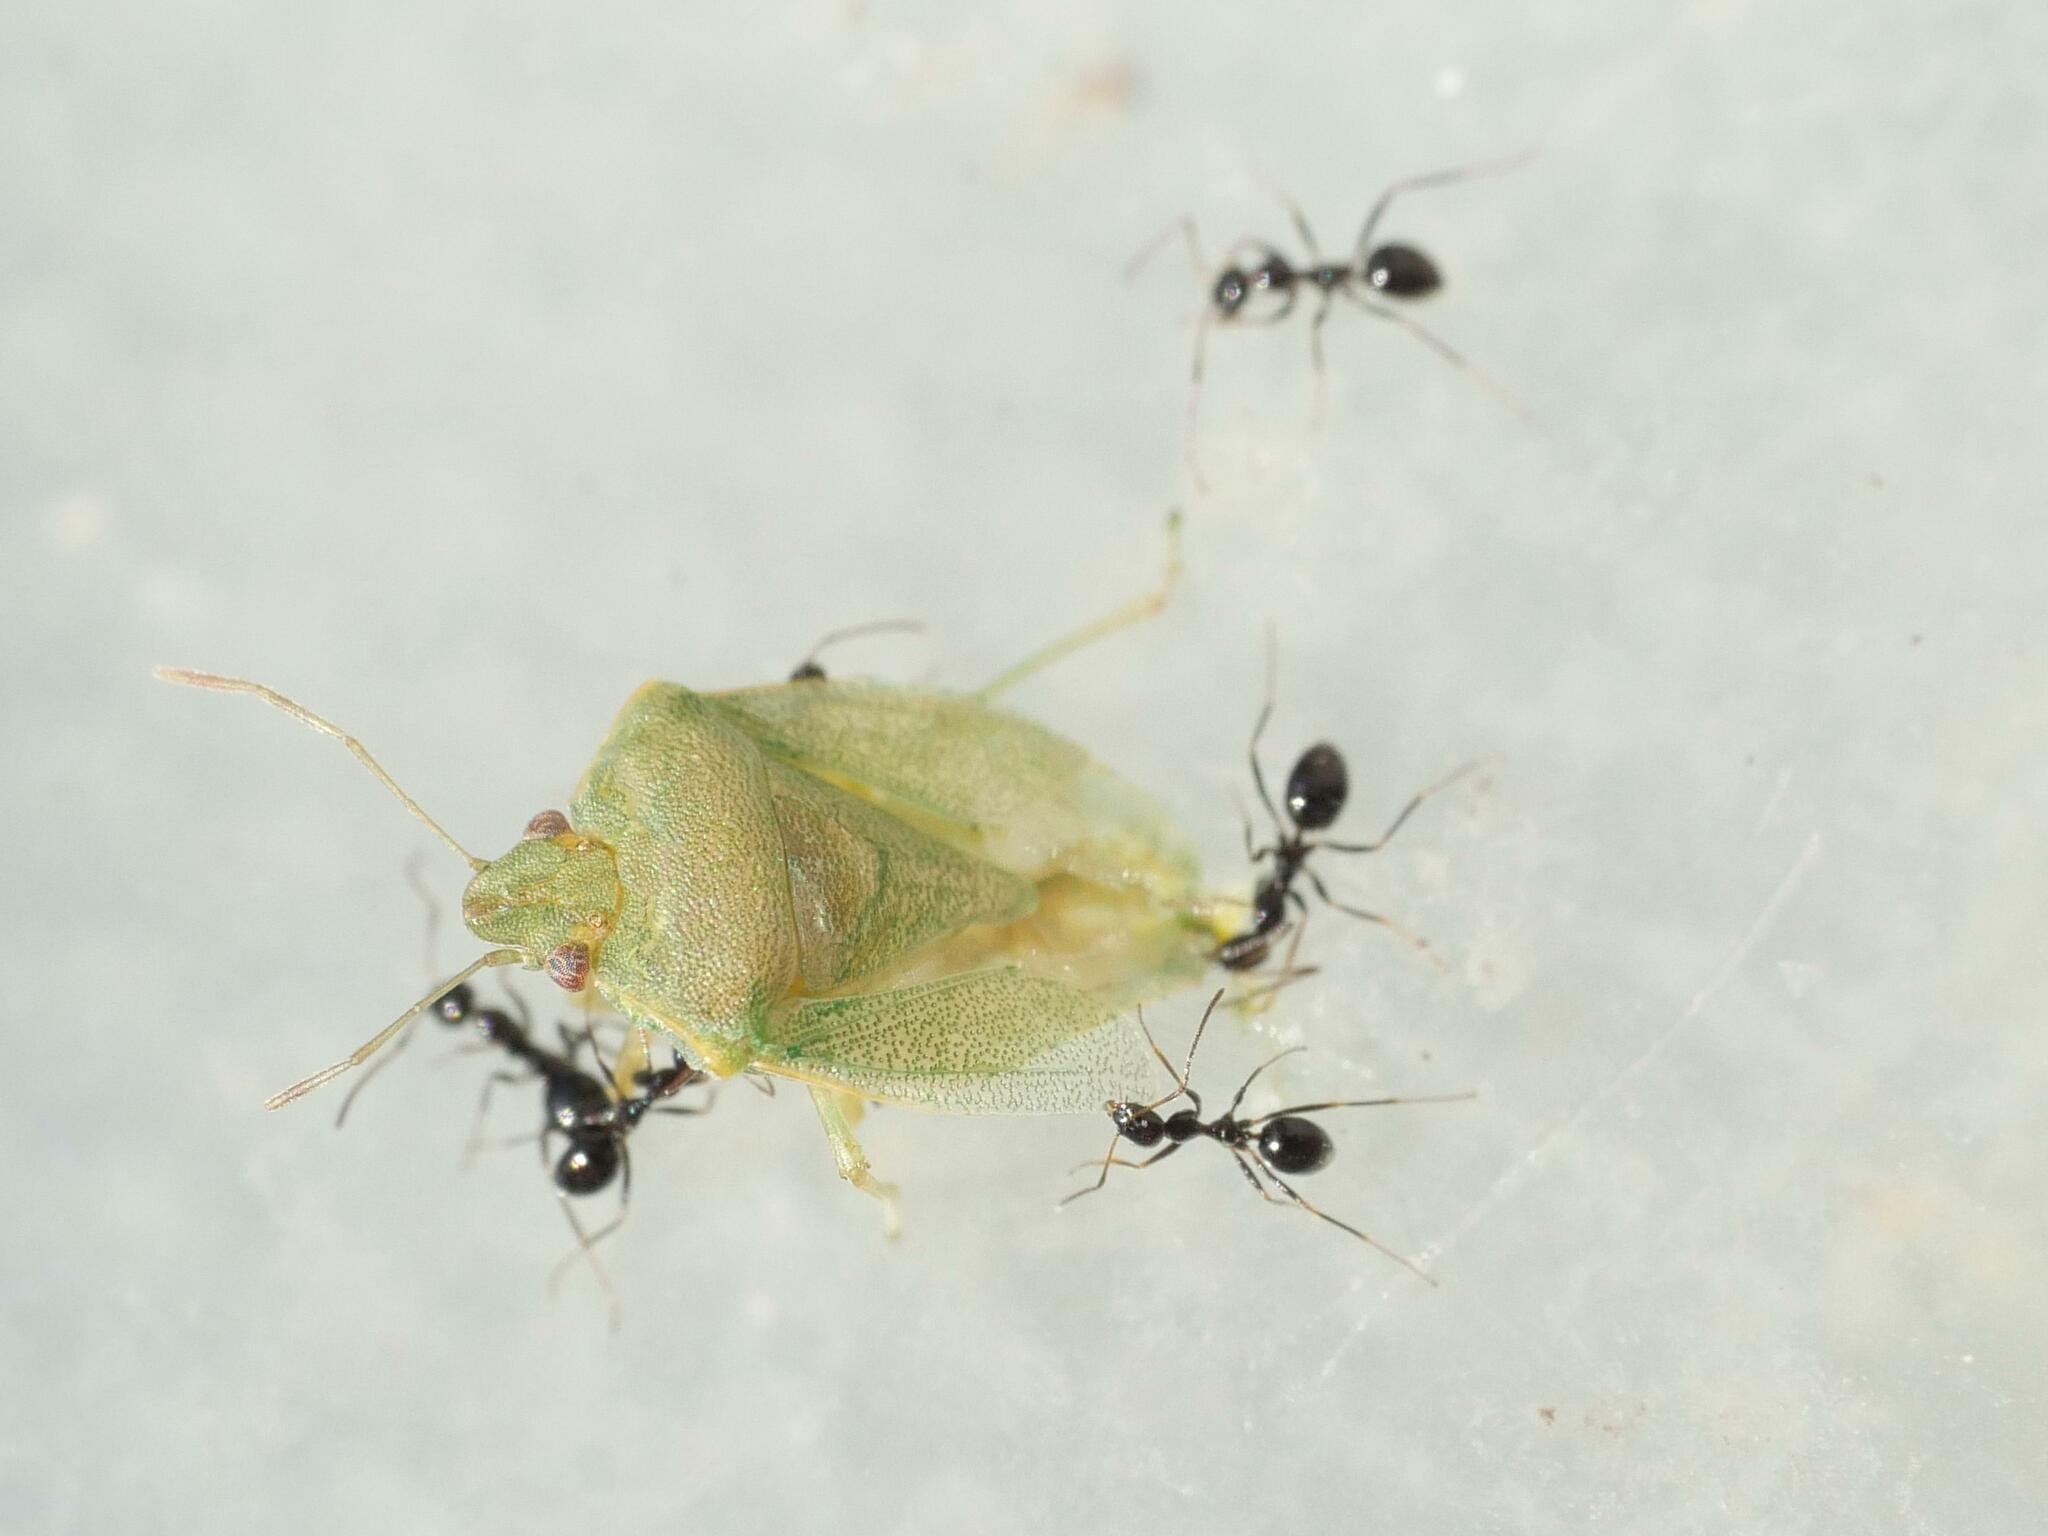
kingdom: Animalia
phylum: Arthropoda
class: Insecta
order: Hemiptera
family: Pentatomidae
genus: Acrosternum
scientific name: Acrosternum millierei
